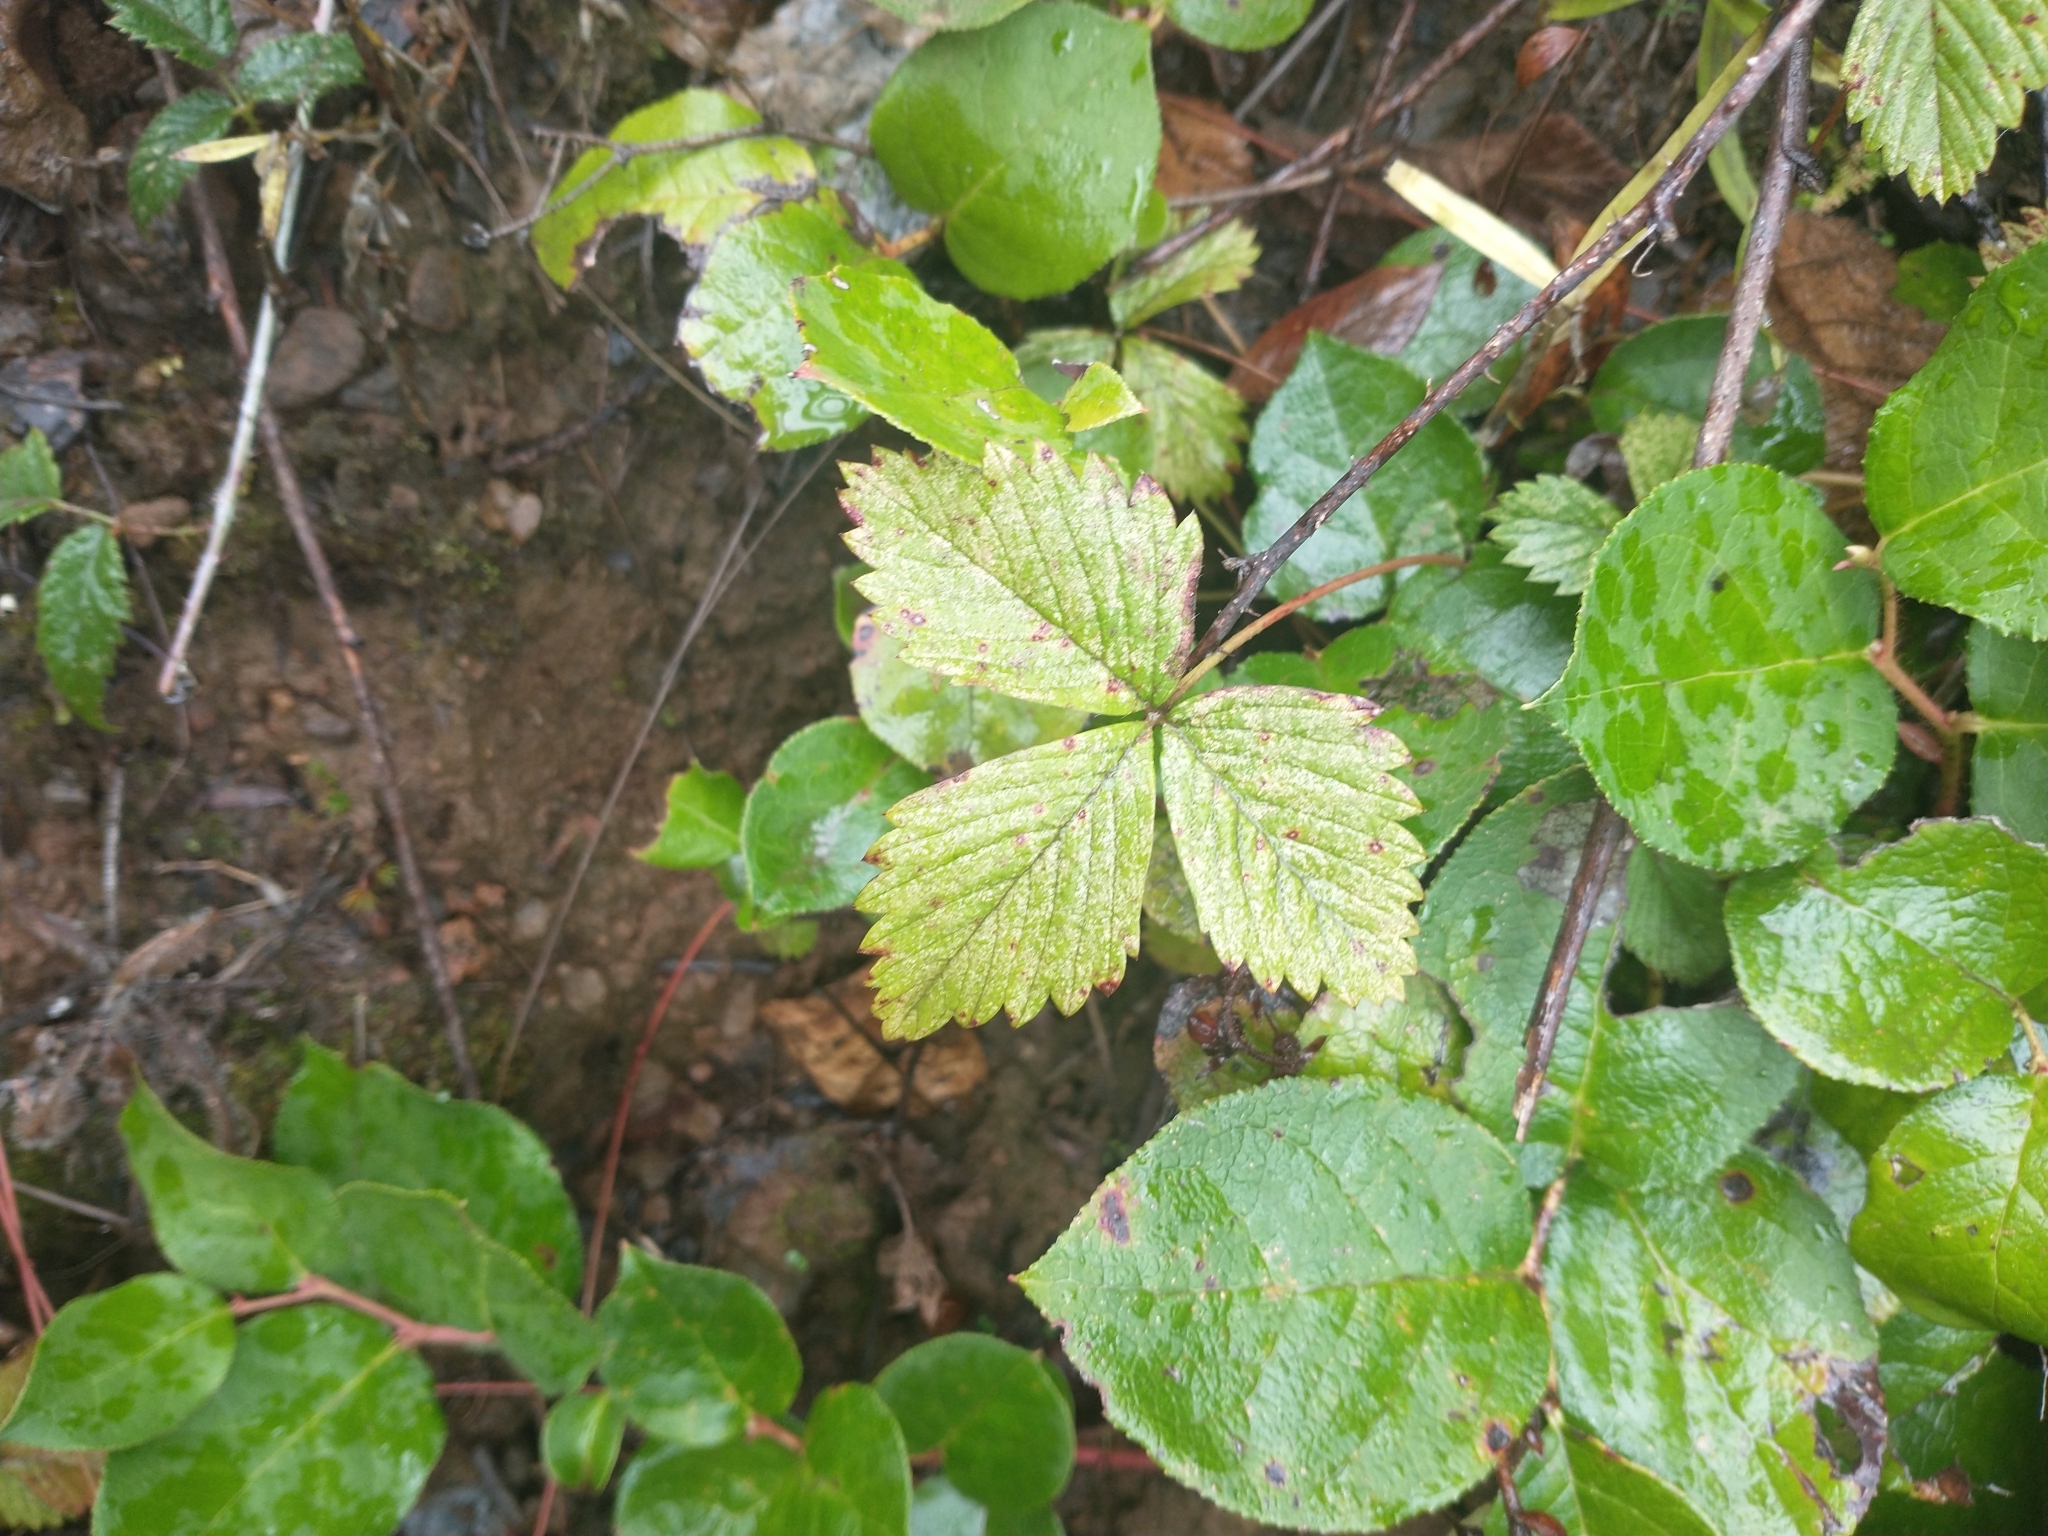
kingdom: Plantae
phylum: Tracheophyta
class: Magnoliopsida
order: Rosales
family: Rosaceae
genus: Fragaria
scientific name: Fragaria vesca
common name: Wild strawberry
